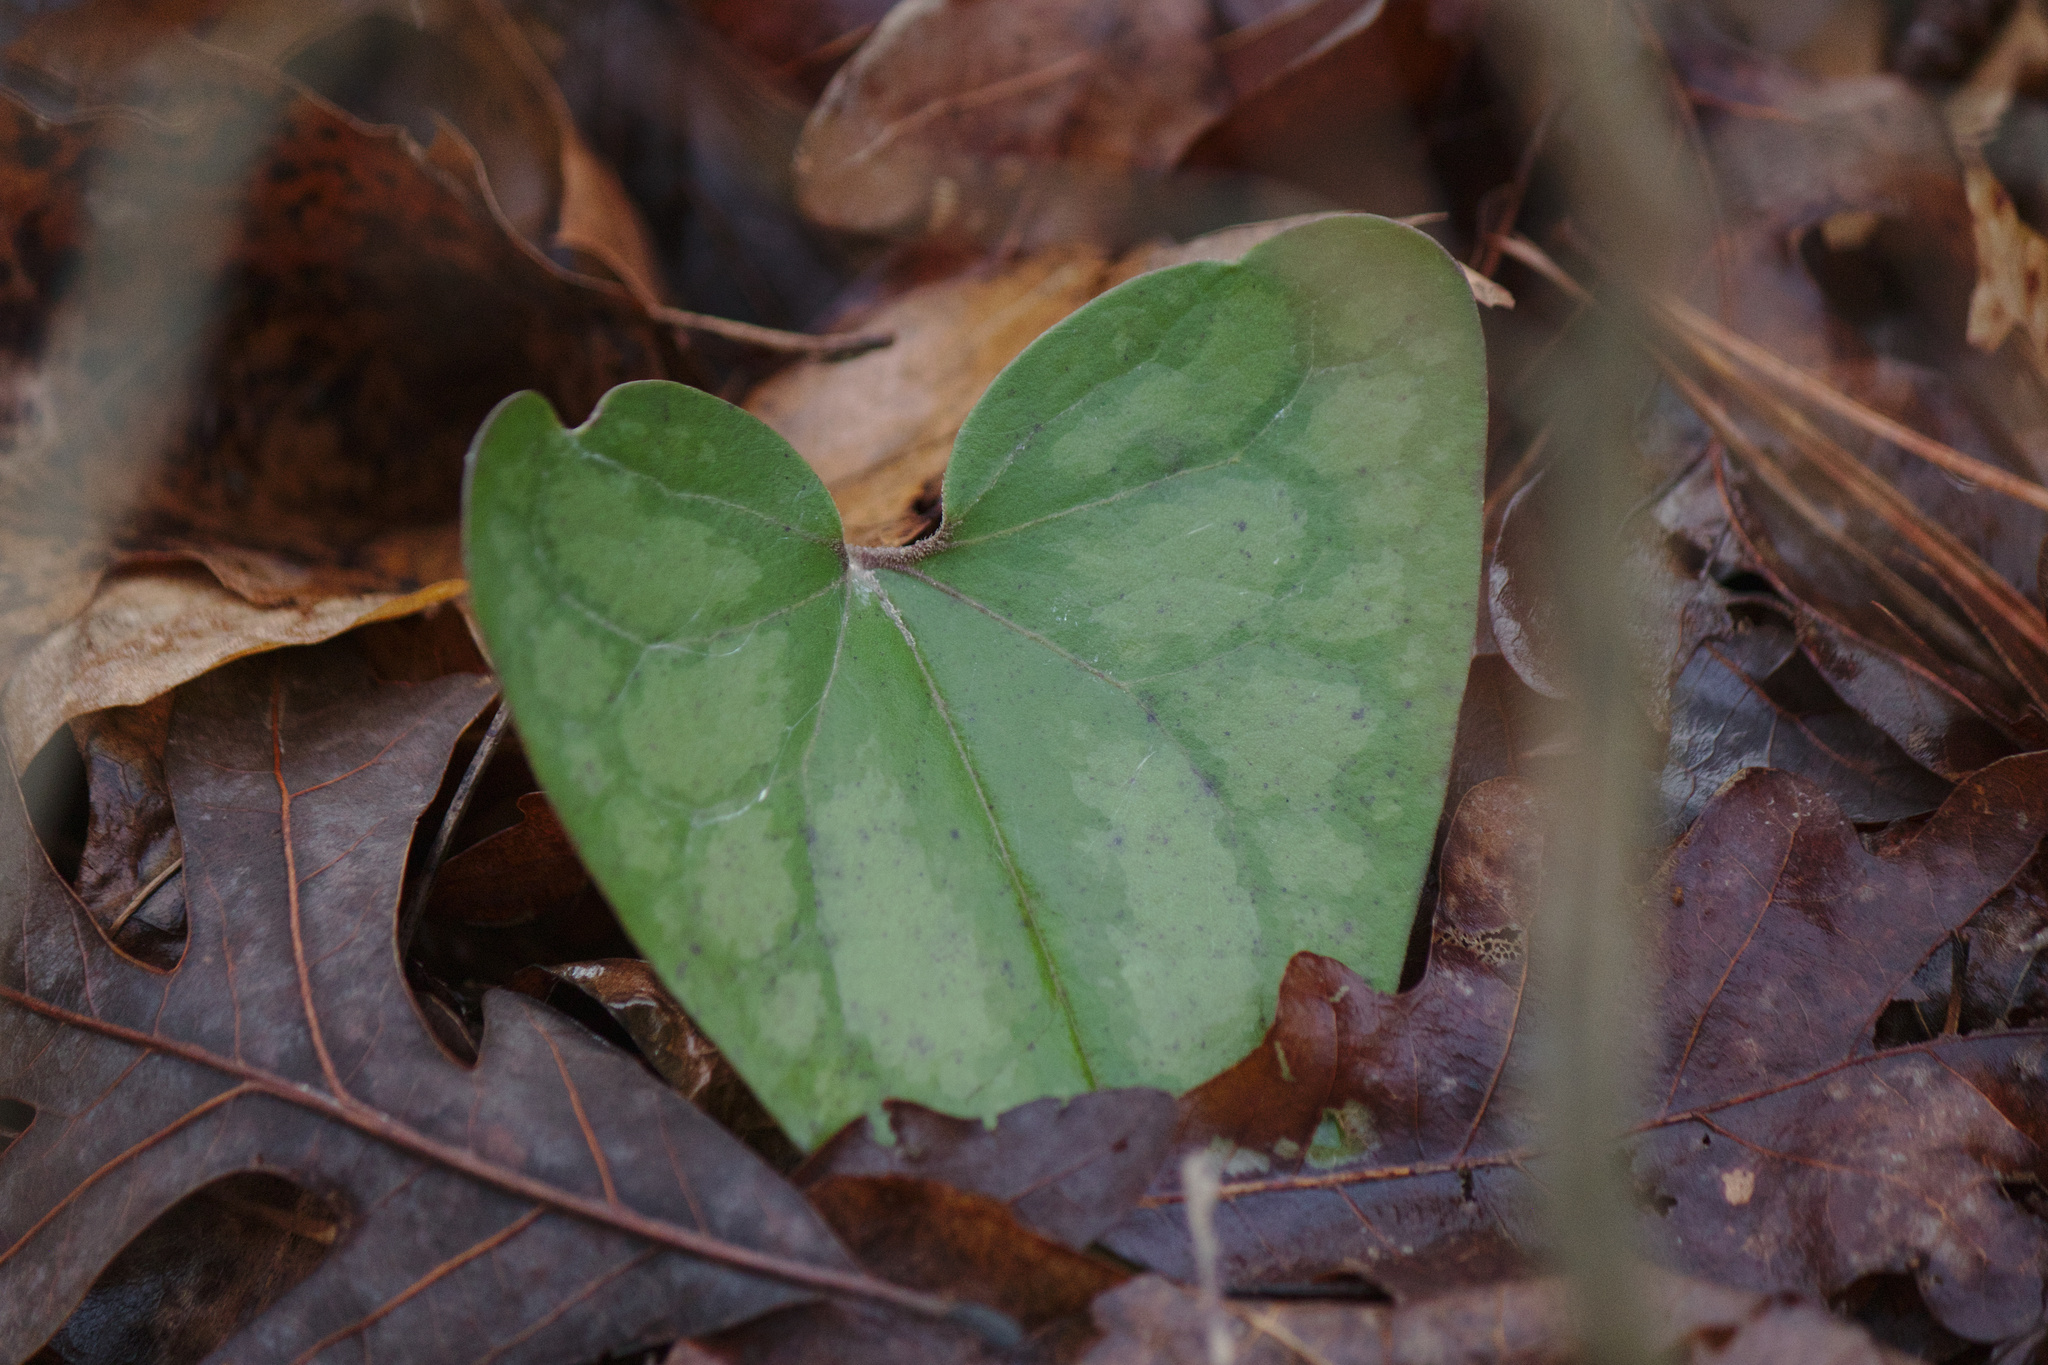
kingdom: Plantae
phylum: Tracheophyta
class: Magnoliopsida
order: Piperales
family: Aristolochiaceae
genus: Hexastylis
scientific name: Hexastylis arifolia
